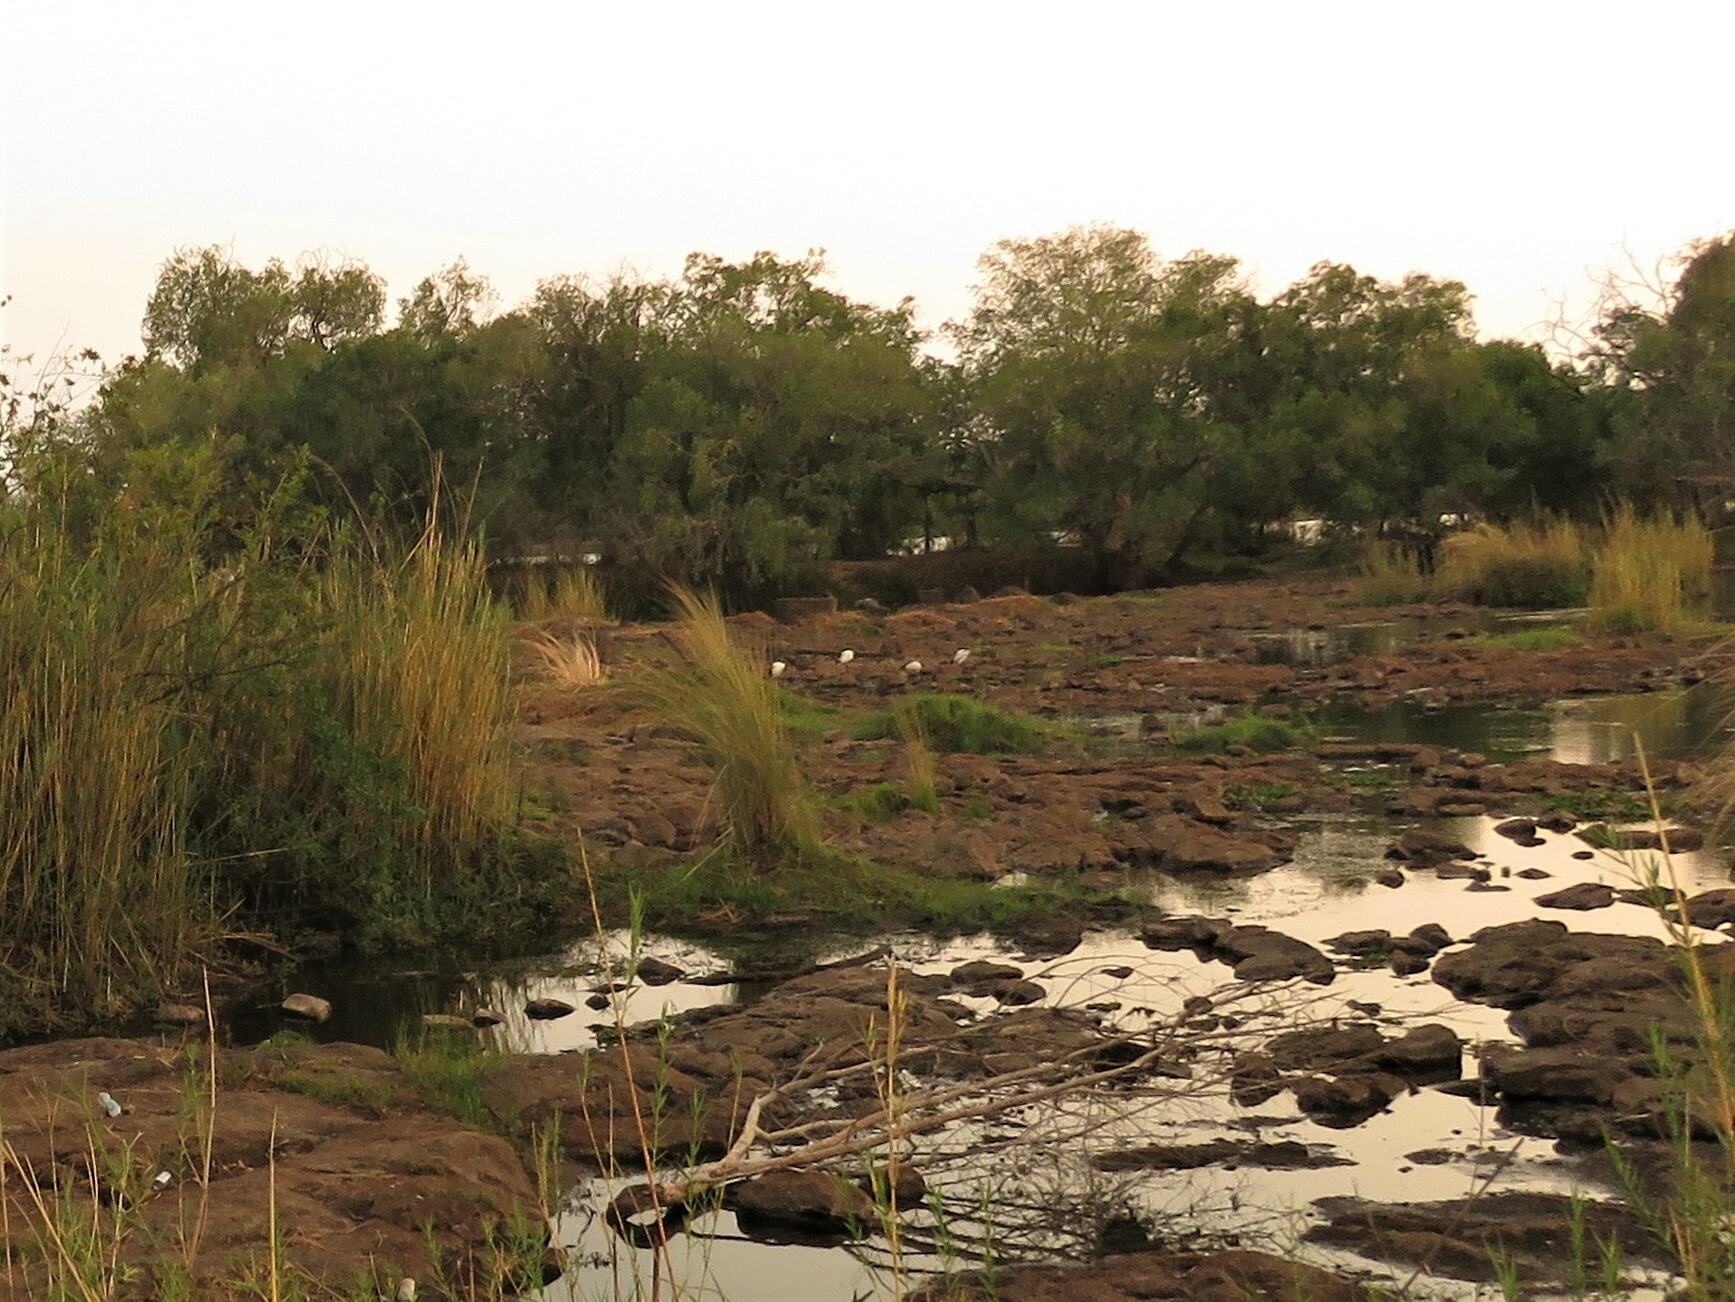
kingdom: Animalia
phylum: Chordata
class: Aves
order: Pelecaniformes
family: Threskiornithidae
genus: Threskiornis
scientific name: Threskiornis aethiopicus
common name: Sacred ibis
